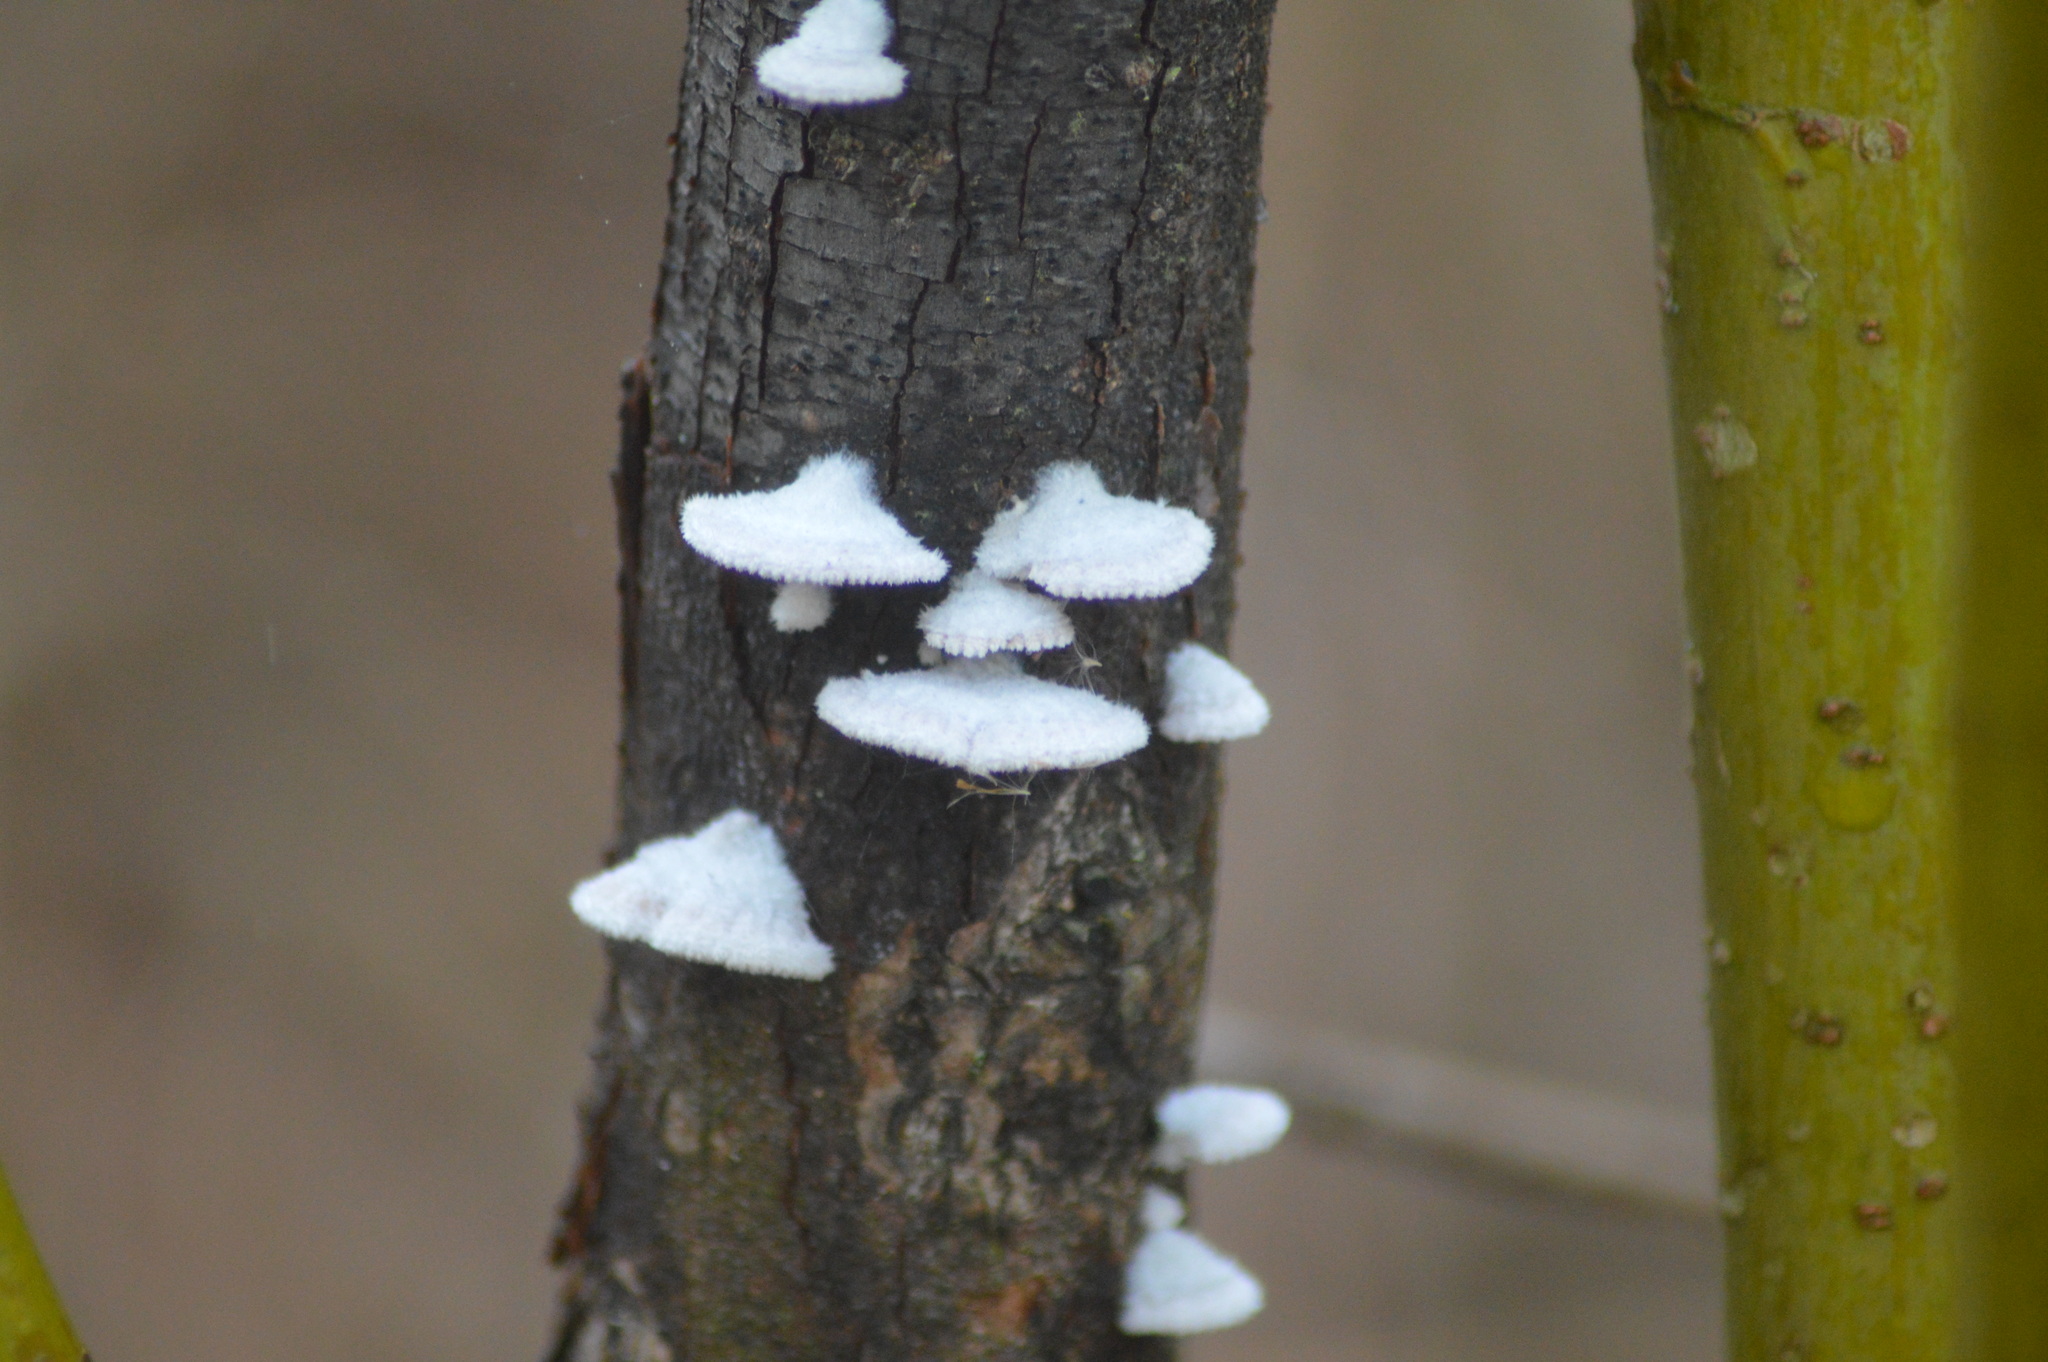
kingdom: Fungi
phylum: Basidiomycota
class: Agaricomycetes
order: Agaricales
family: Schizophyllaceae
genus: Schizophyllum
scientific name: Schizophyllum commune
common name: Common porecrust
